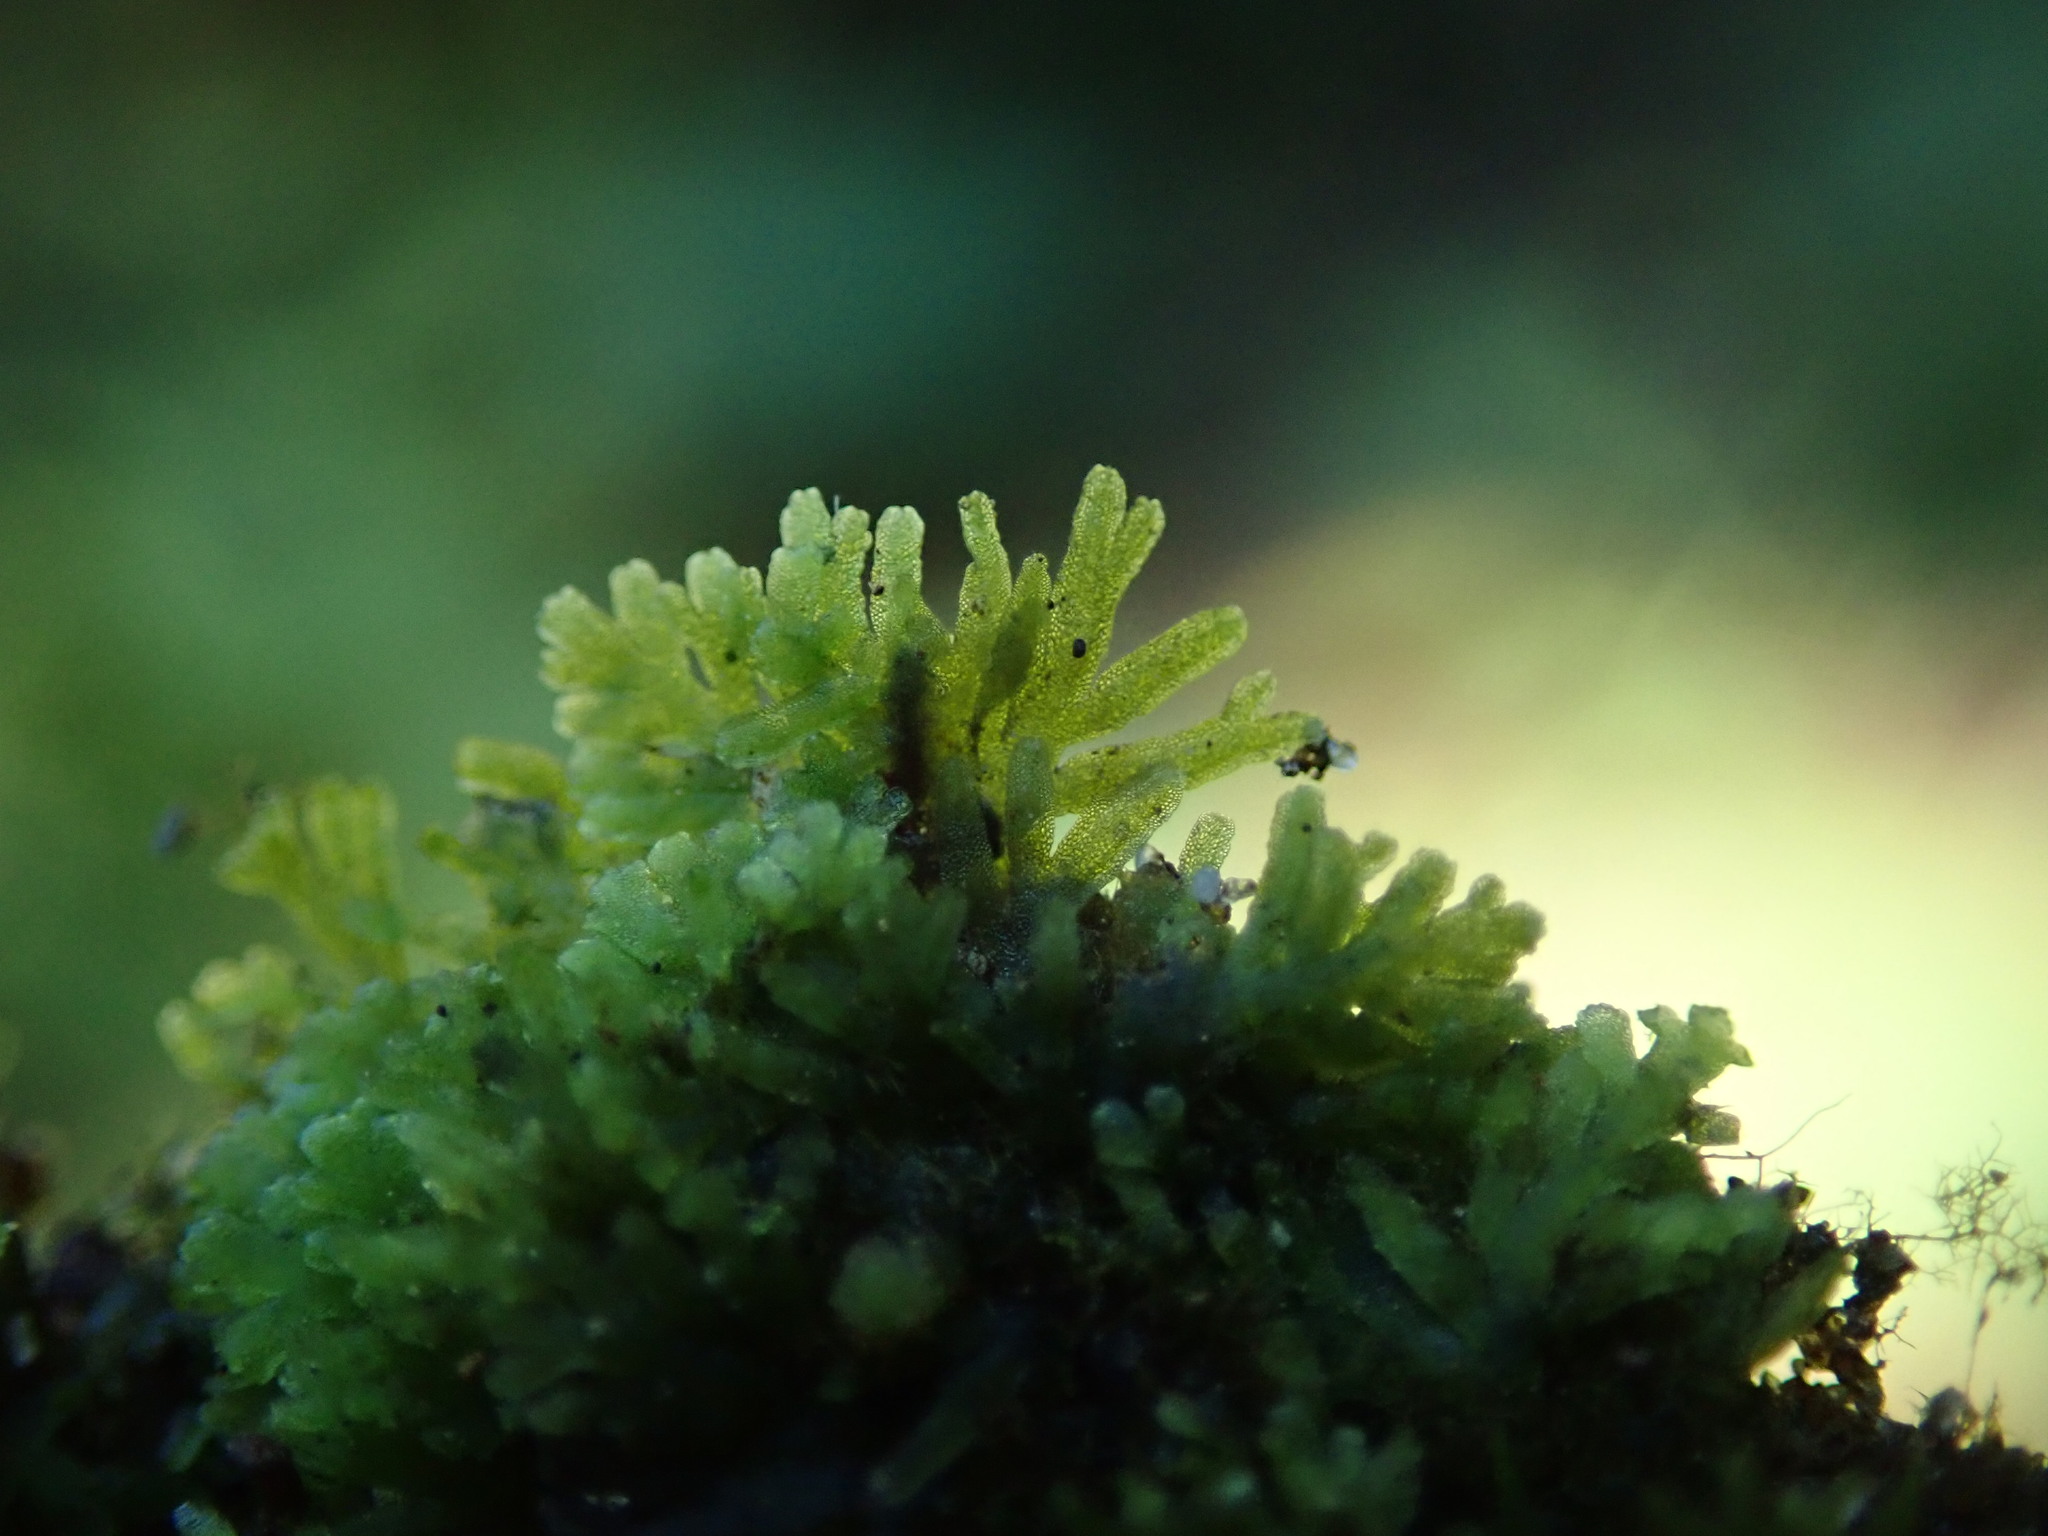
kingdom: Plantae
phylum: Marchantiophyta
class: Jungermanniopsida
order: Metzgeriales
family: Aneuraceae
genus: Riccardia
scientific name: Riccardia chamedryfolia
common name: Jagged germanderwort
